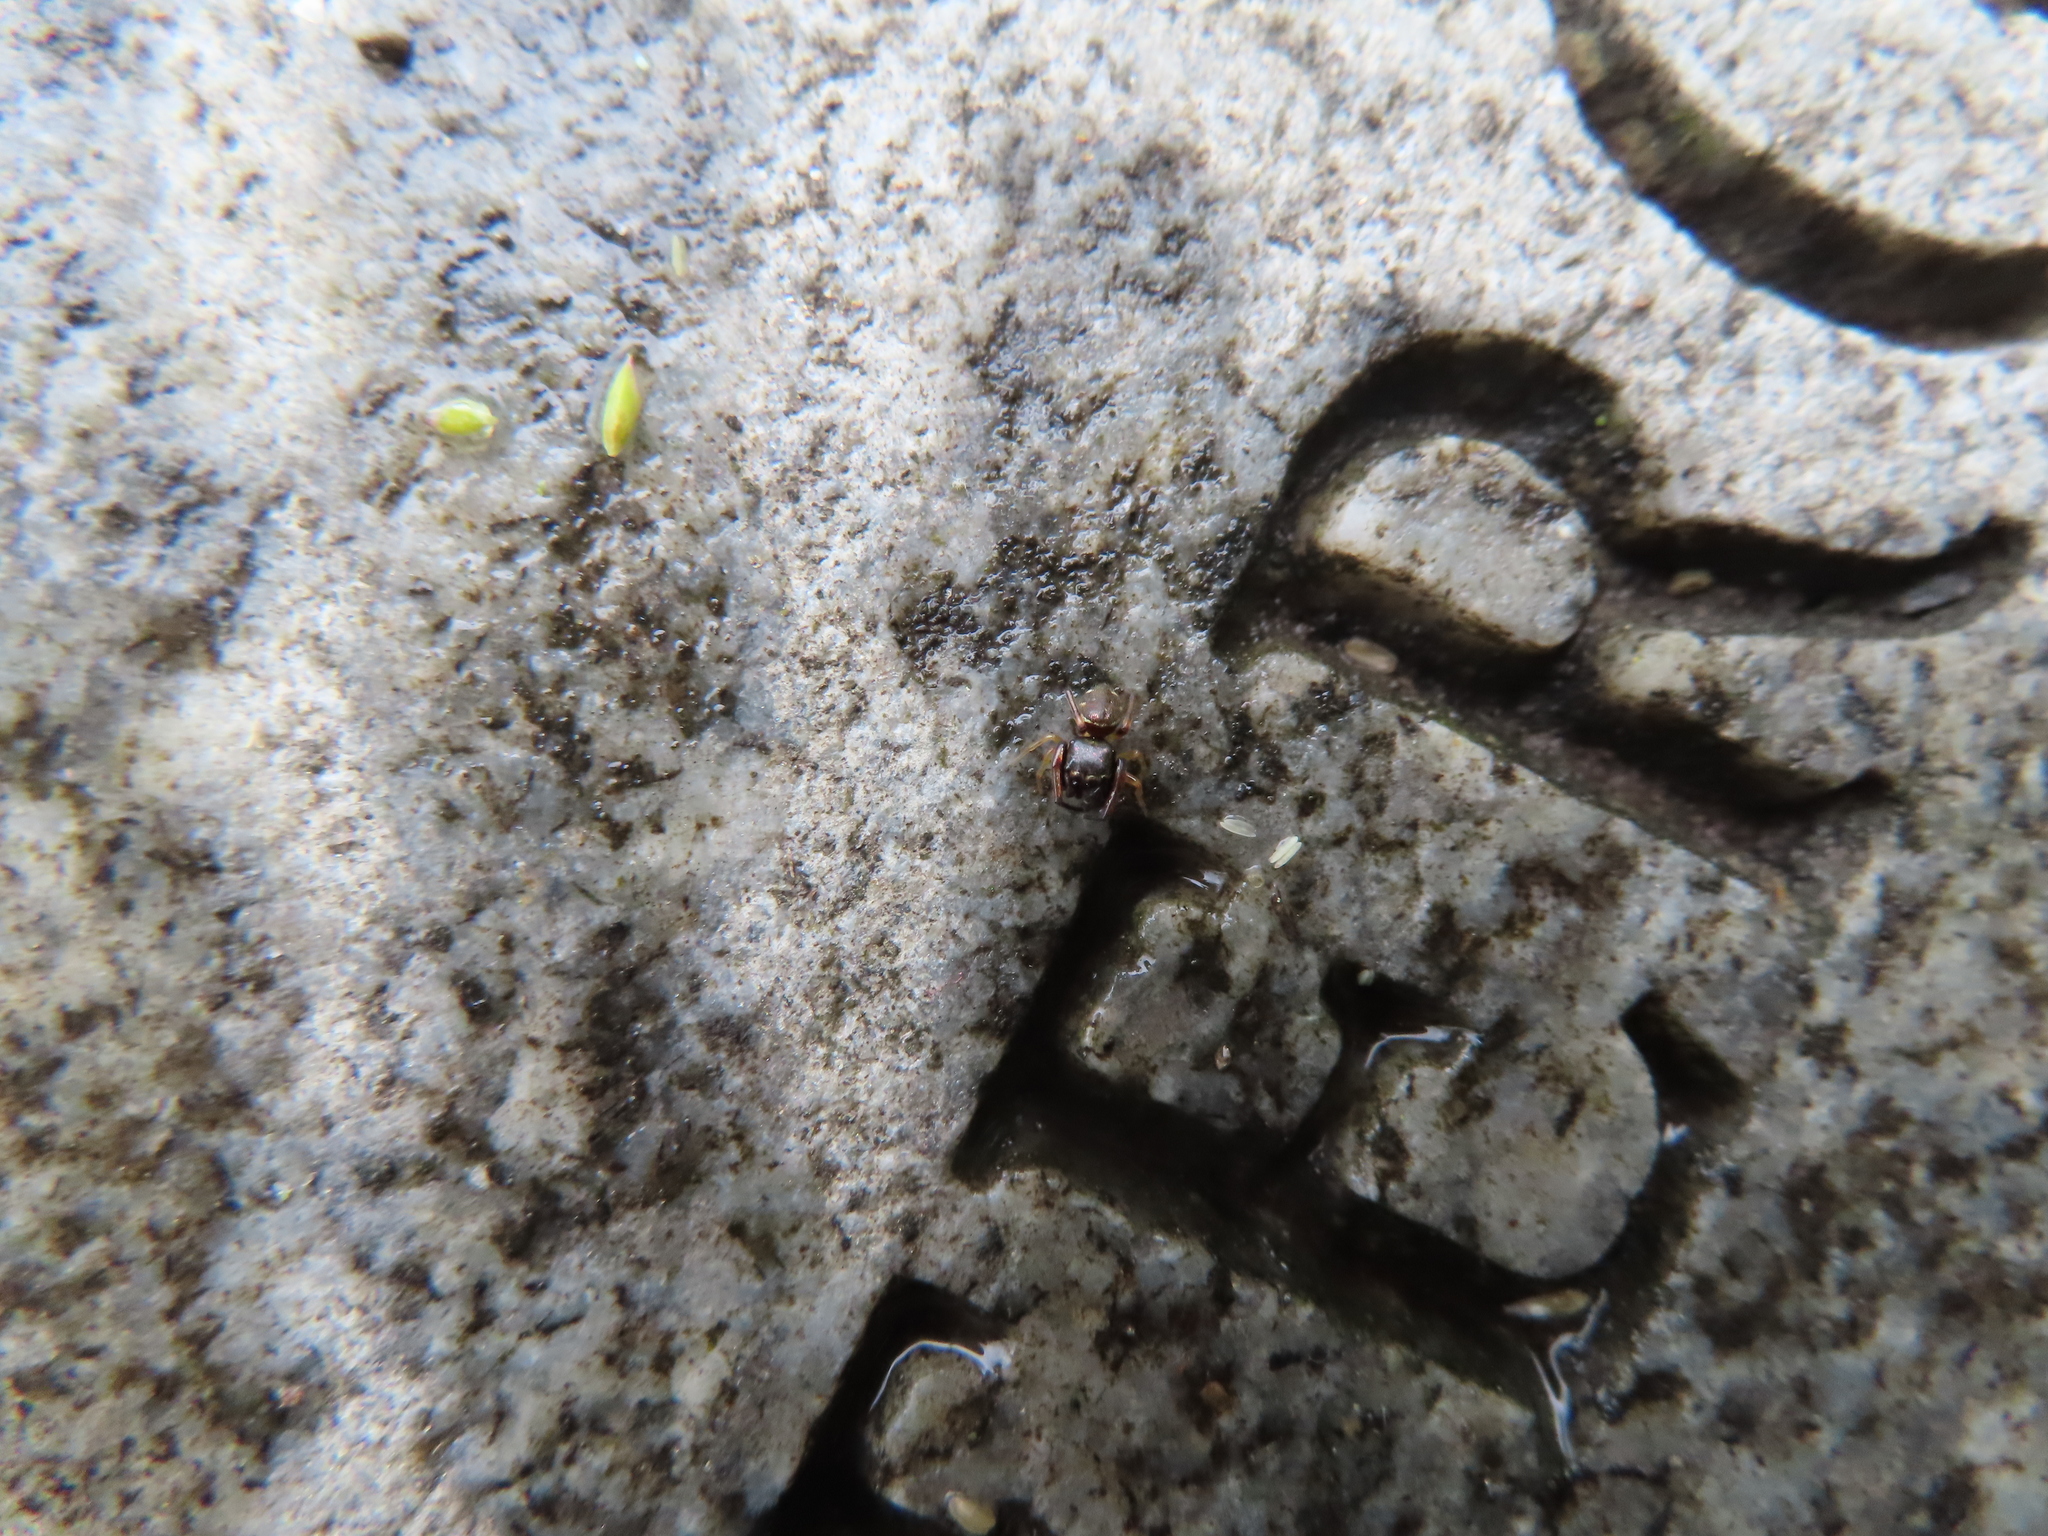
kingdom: Animalia
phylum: Arthropoda
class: Arachnida
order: Araneae
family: Salticidae
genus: Zygoballus
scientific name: Zygoballus rufipes
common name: Jumping spiders
